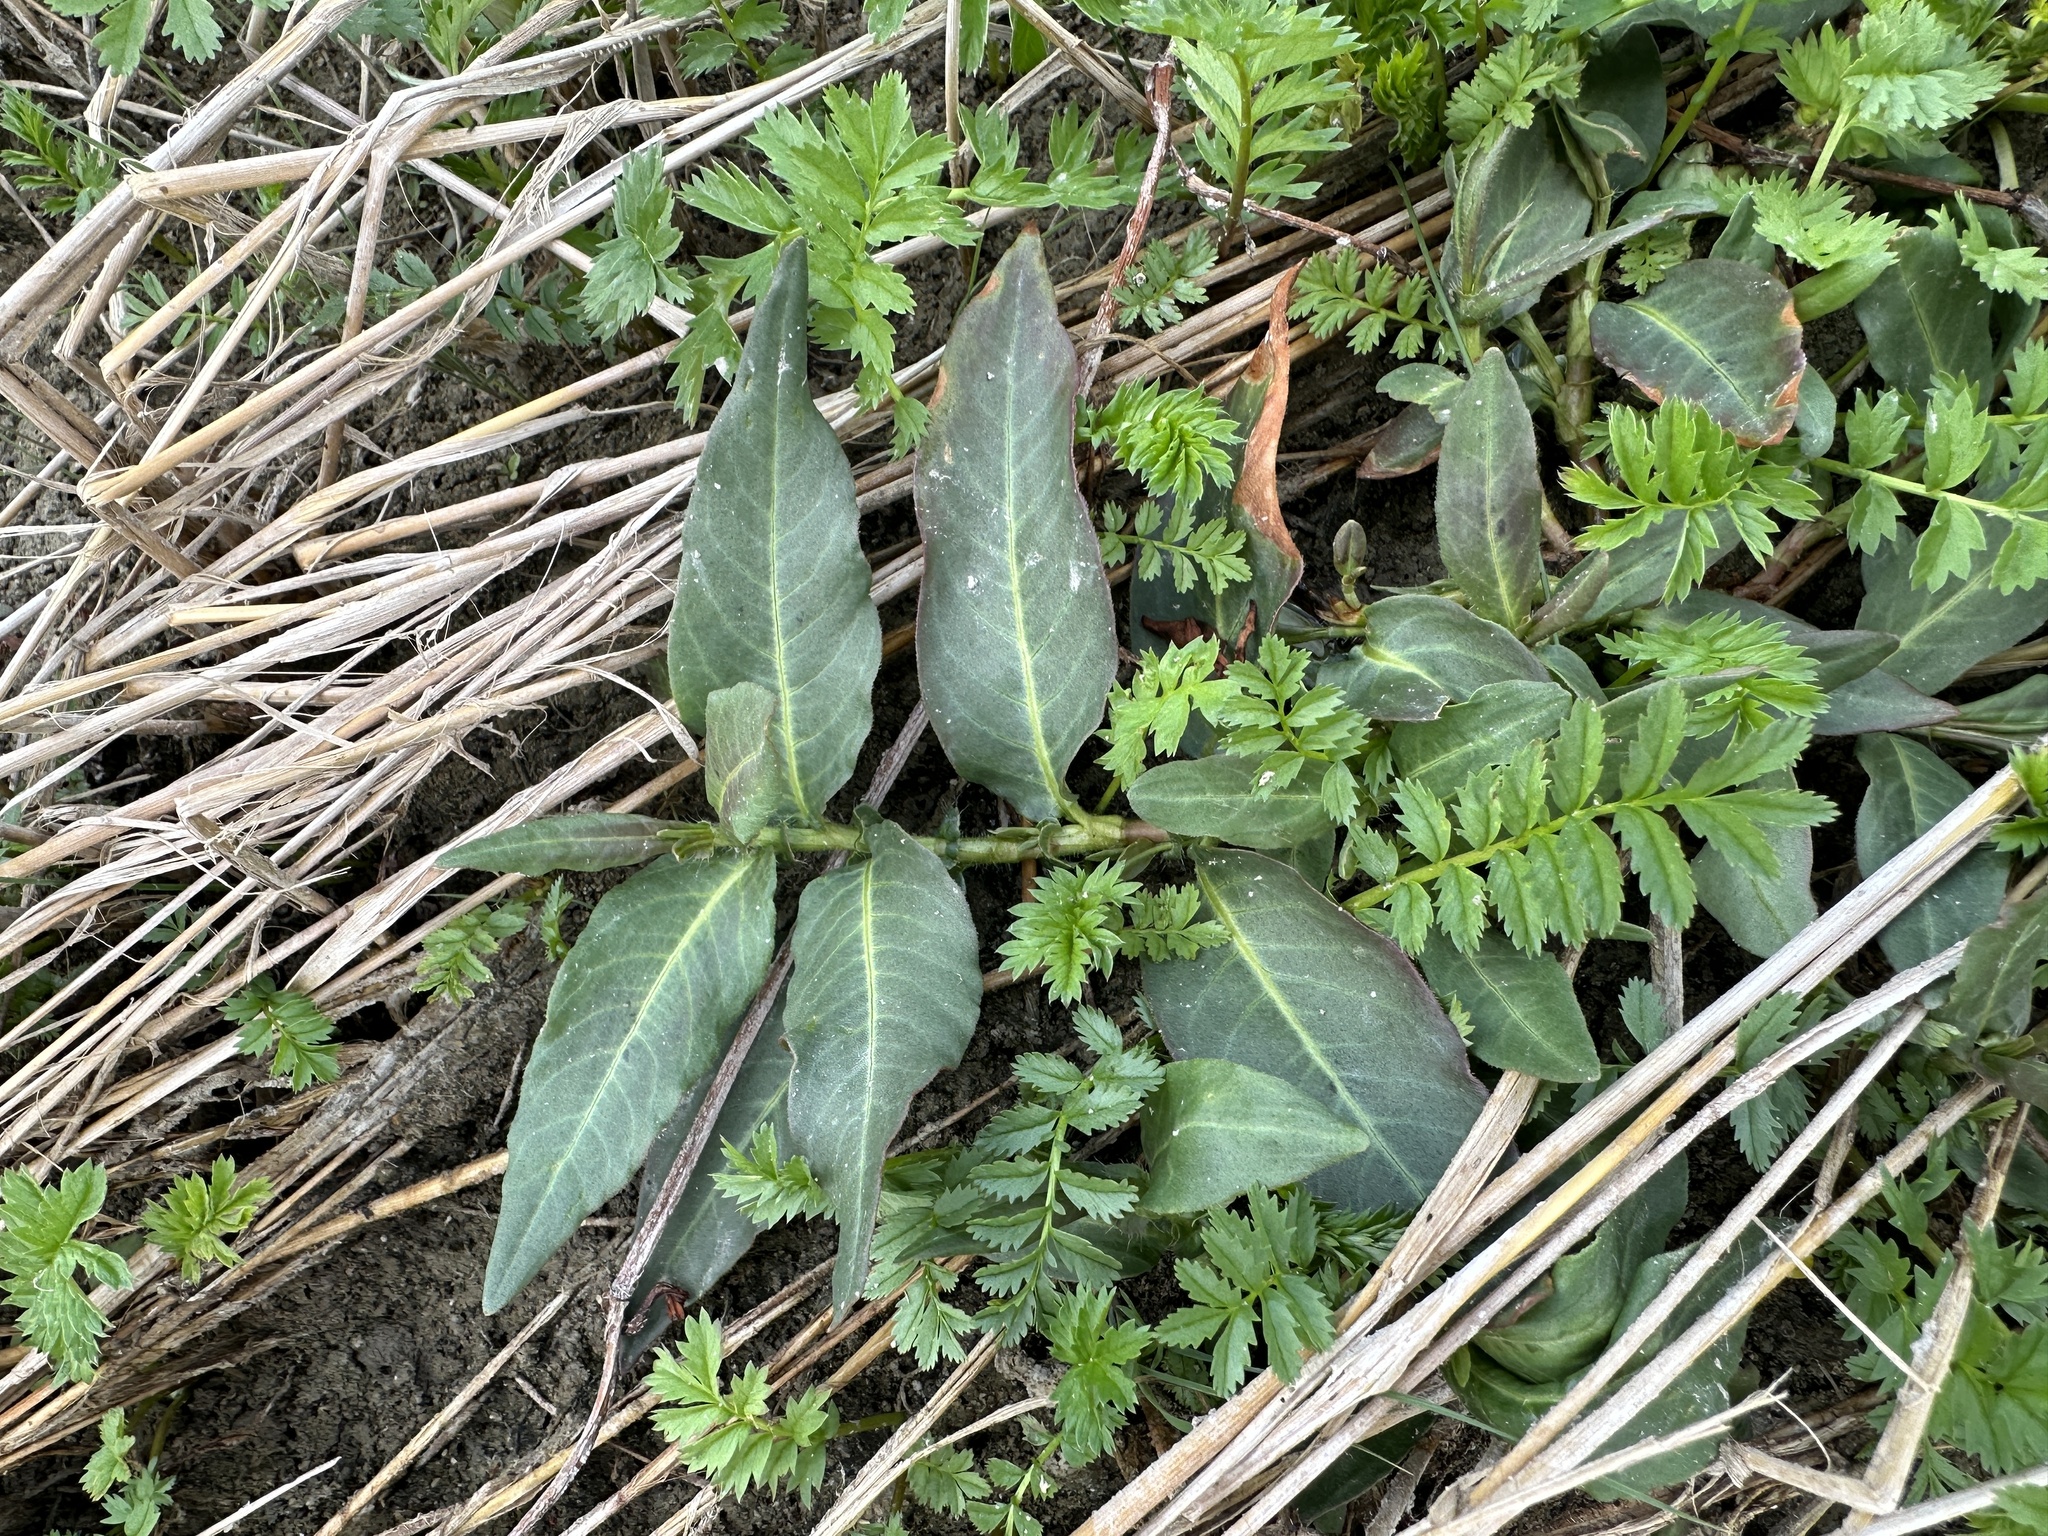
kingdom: Plantae
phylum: Tracheophyta
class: Magnoliopsida
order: Caryophyllales
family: Polygonaceae
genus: Persicaria
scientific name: Persicaria amphibia
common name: Amphibious bistort
